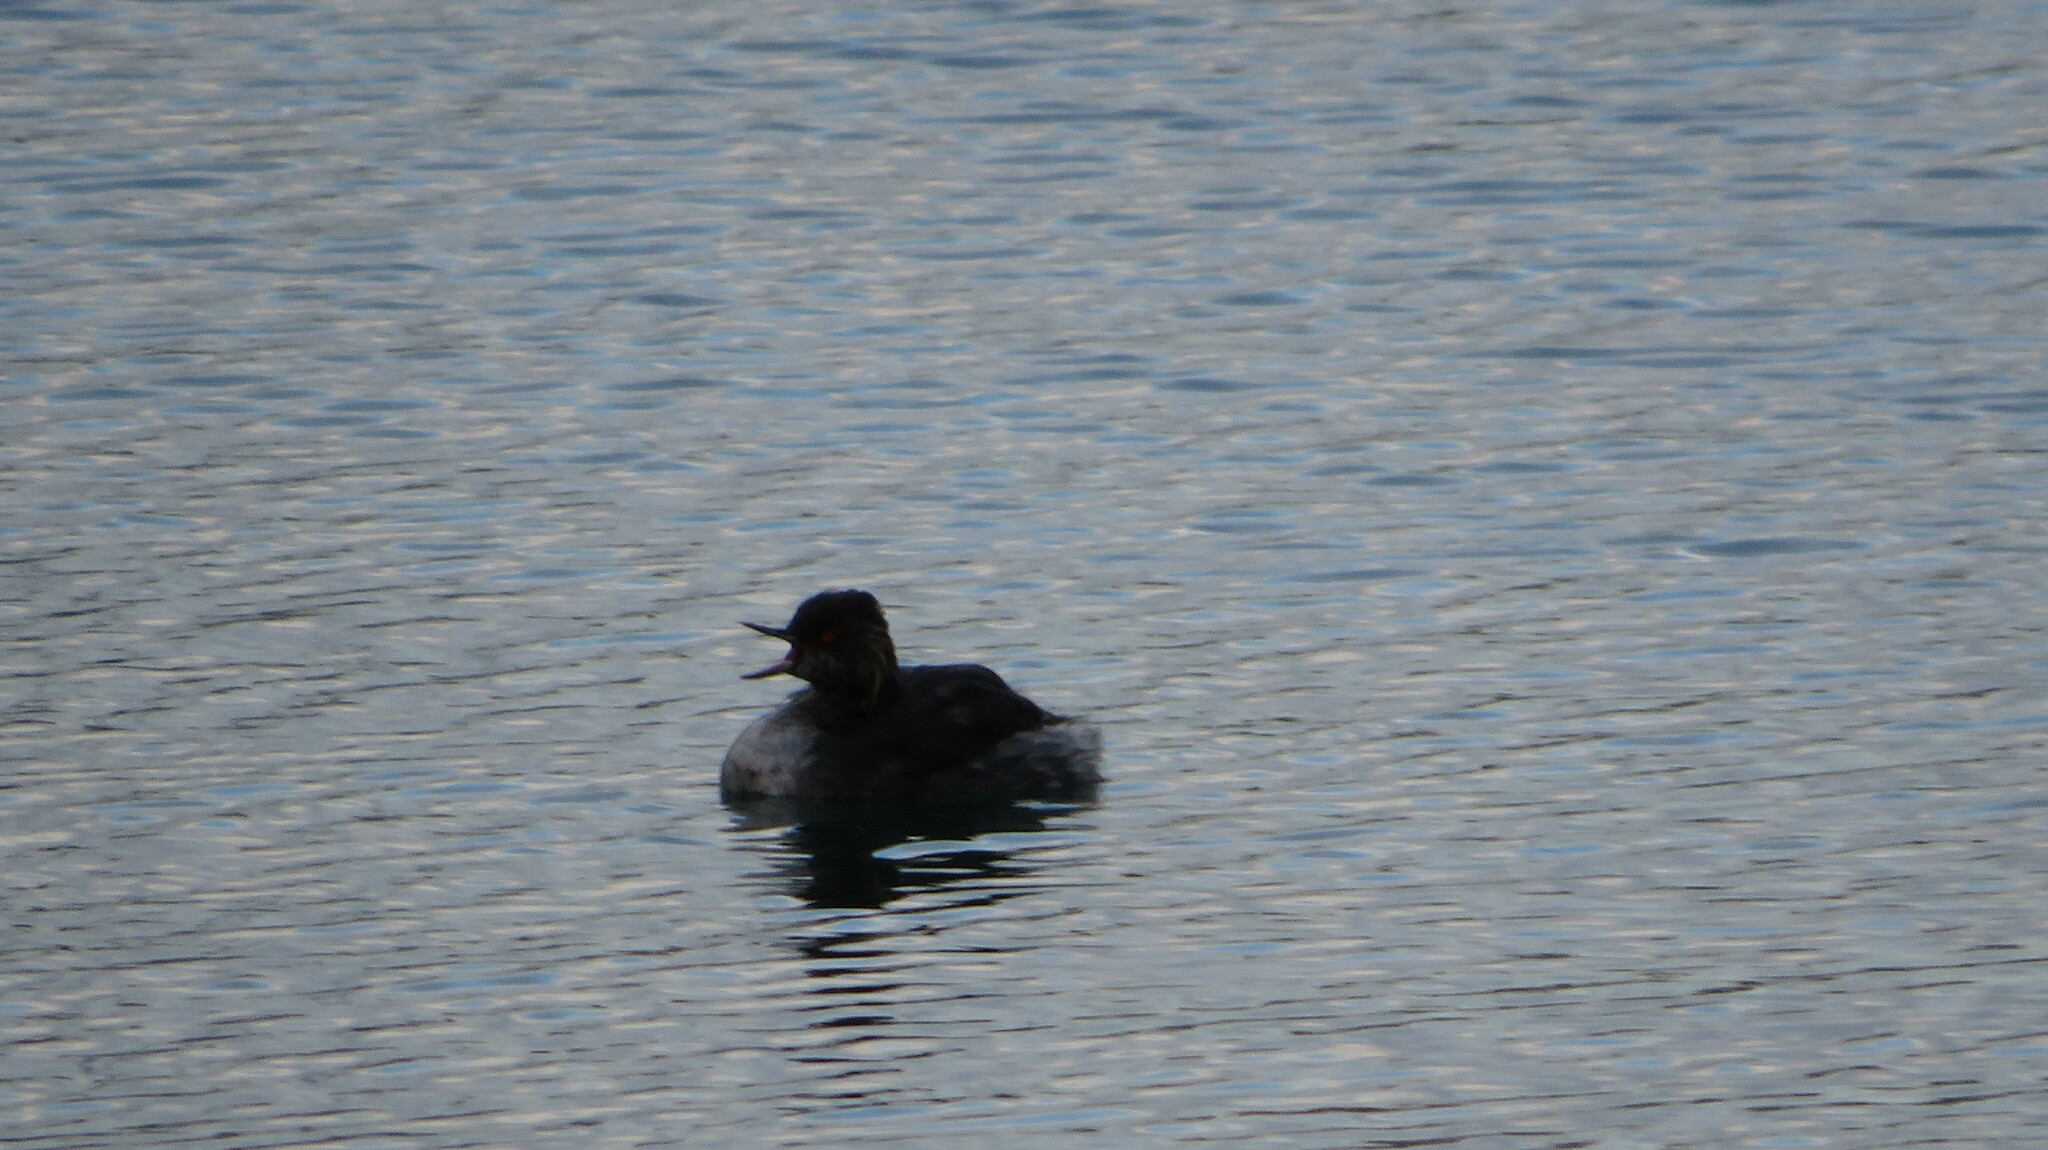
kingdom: Animalia
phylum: Chordata
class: Aves
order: Podicipediformes
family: Podicipedidae
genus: Podiceps
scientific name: Podiceps nigricollis
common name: Black-necked grebe
